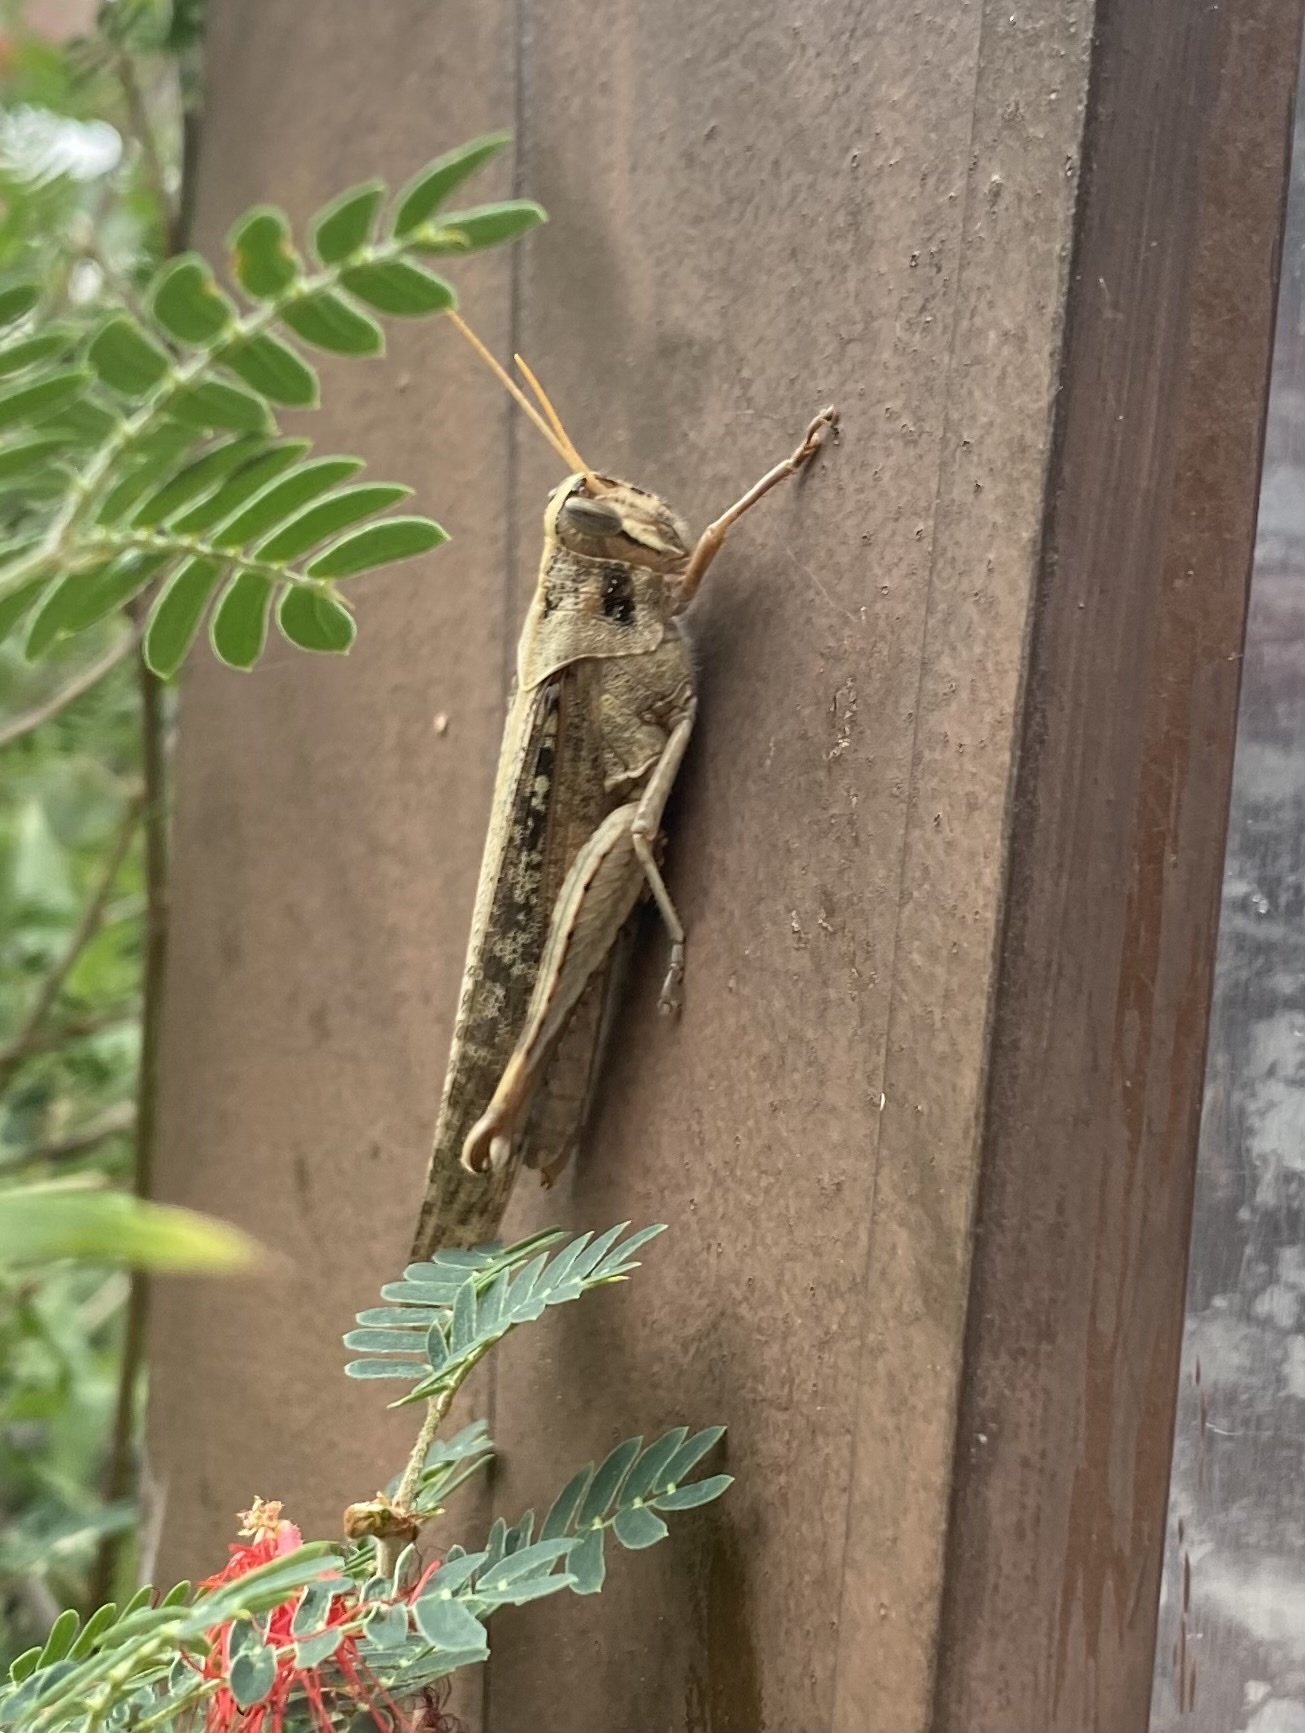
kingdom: Animalia
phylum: Arthropoda
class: Insecta
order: Orthoptera
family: Acrididae
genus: Schistocerca
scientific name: Schistocerca nitens
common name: Vagrant grasshopper
